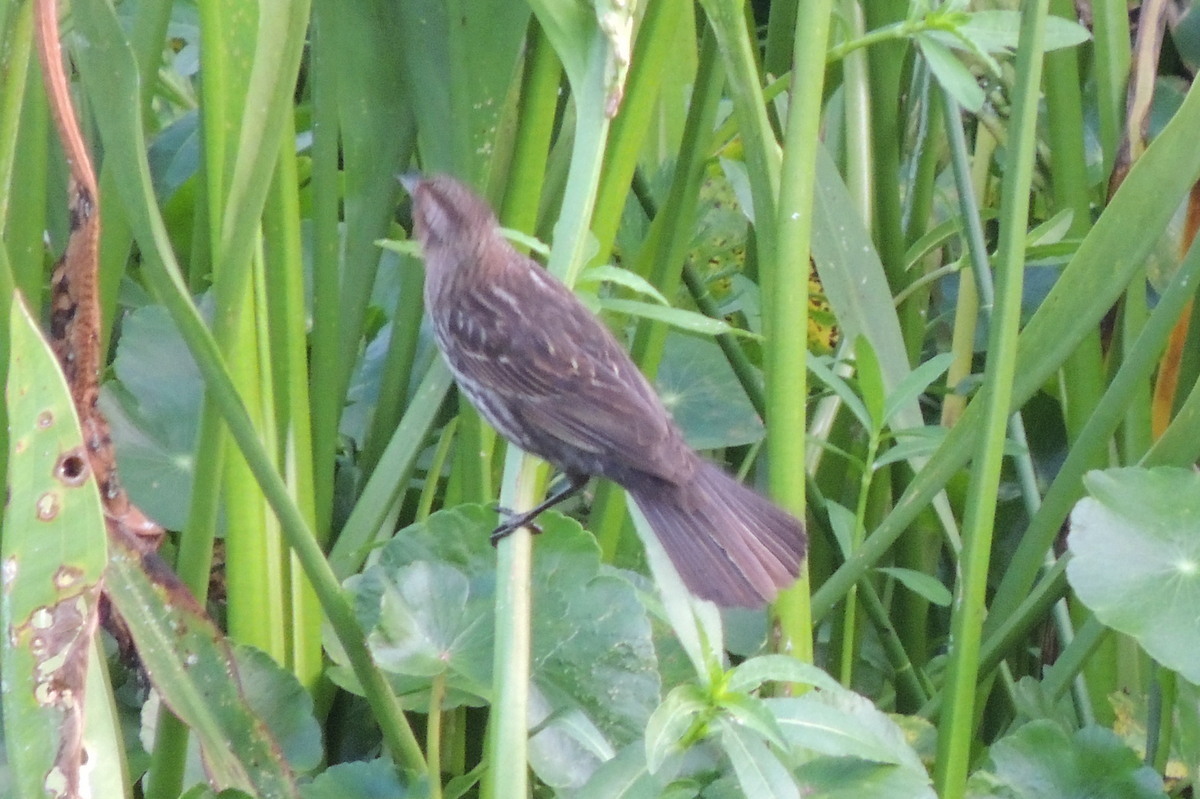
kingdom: Animalia
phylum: Chordata
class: Aves
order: Passeriformes
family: Icteridae
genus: Agelaius
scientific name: Agelaius phoeniceus
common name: Red-winged blackbird
